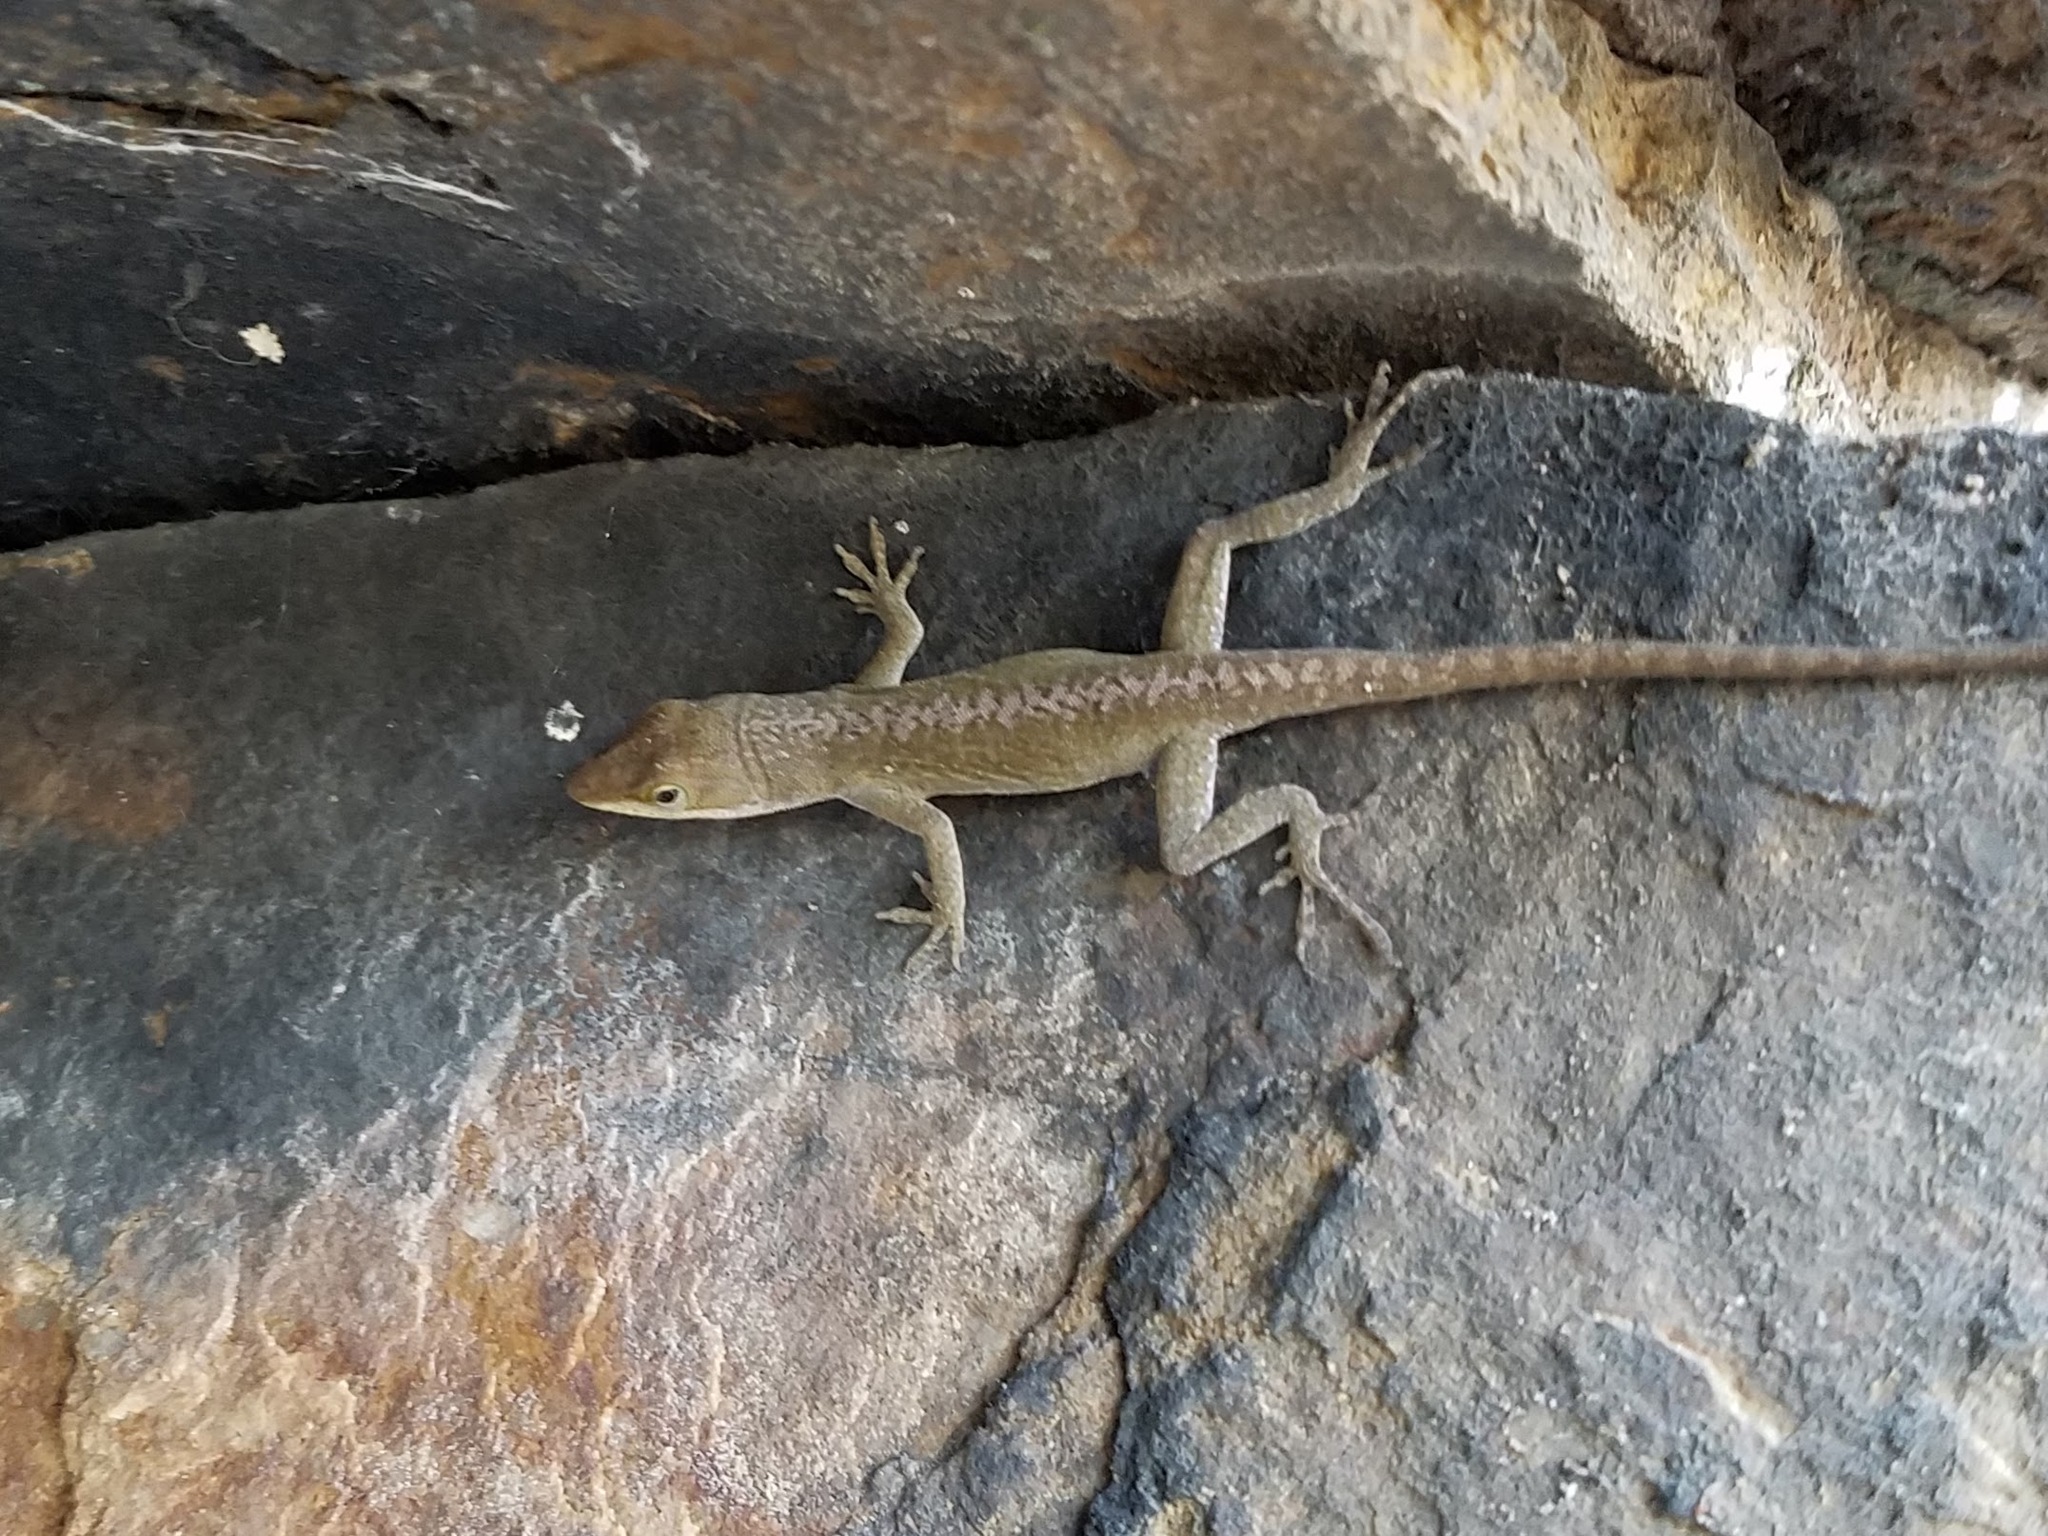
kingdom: Animalia
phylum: Chordata
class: Squamata
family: Dactyloidae
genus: Anolis
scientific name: Anolis carolinensis
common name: Green anole
